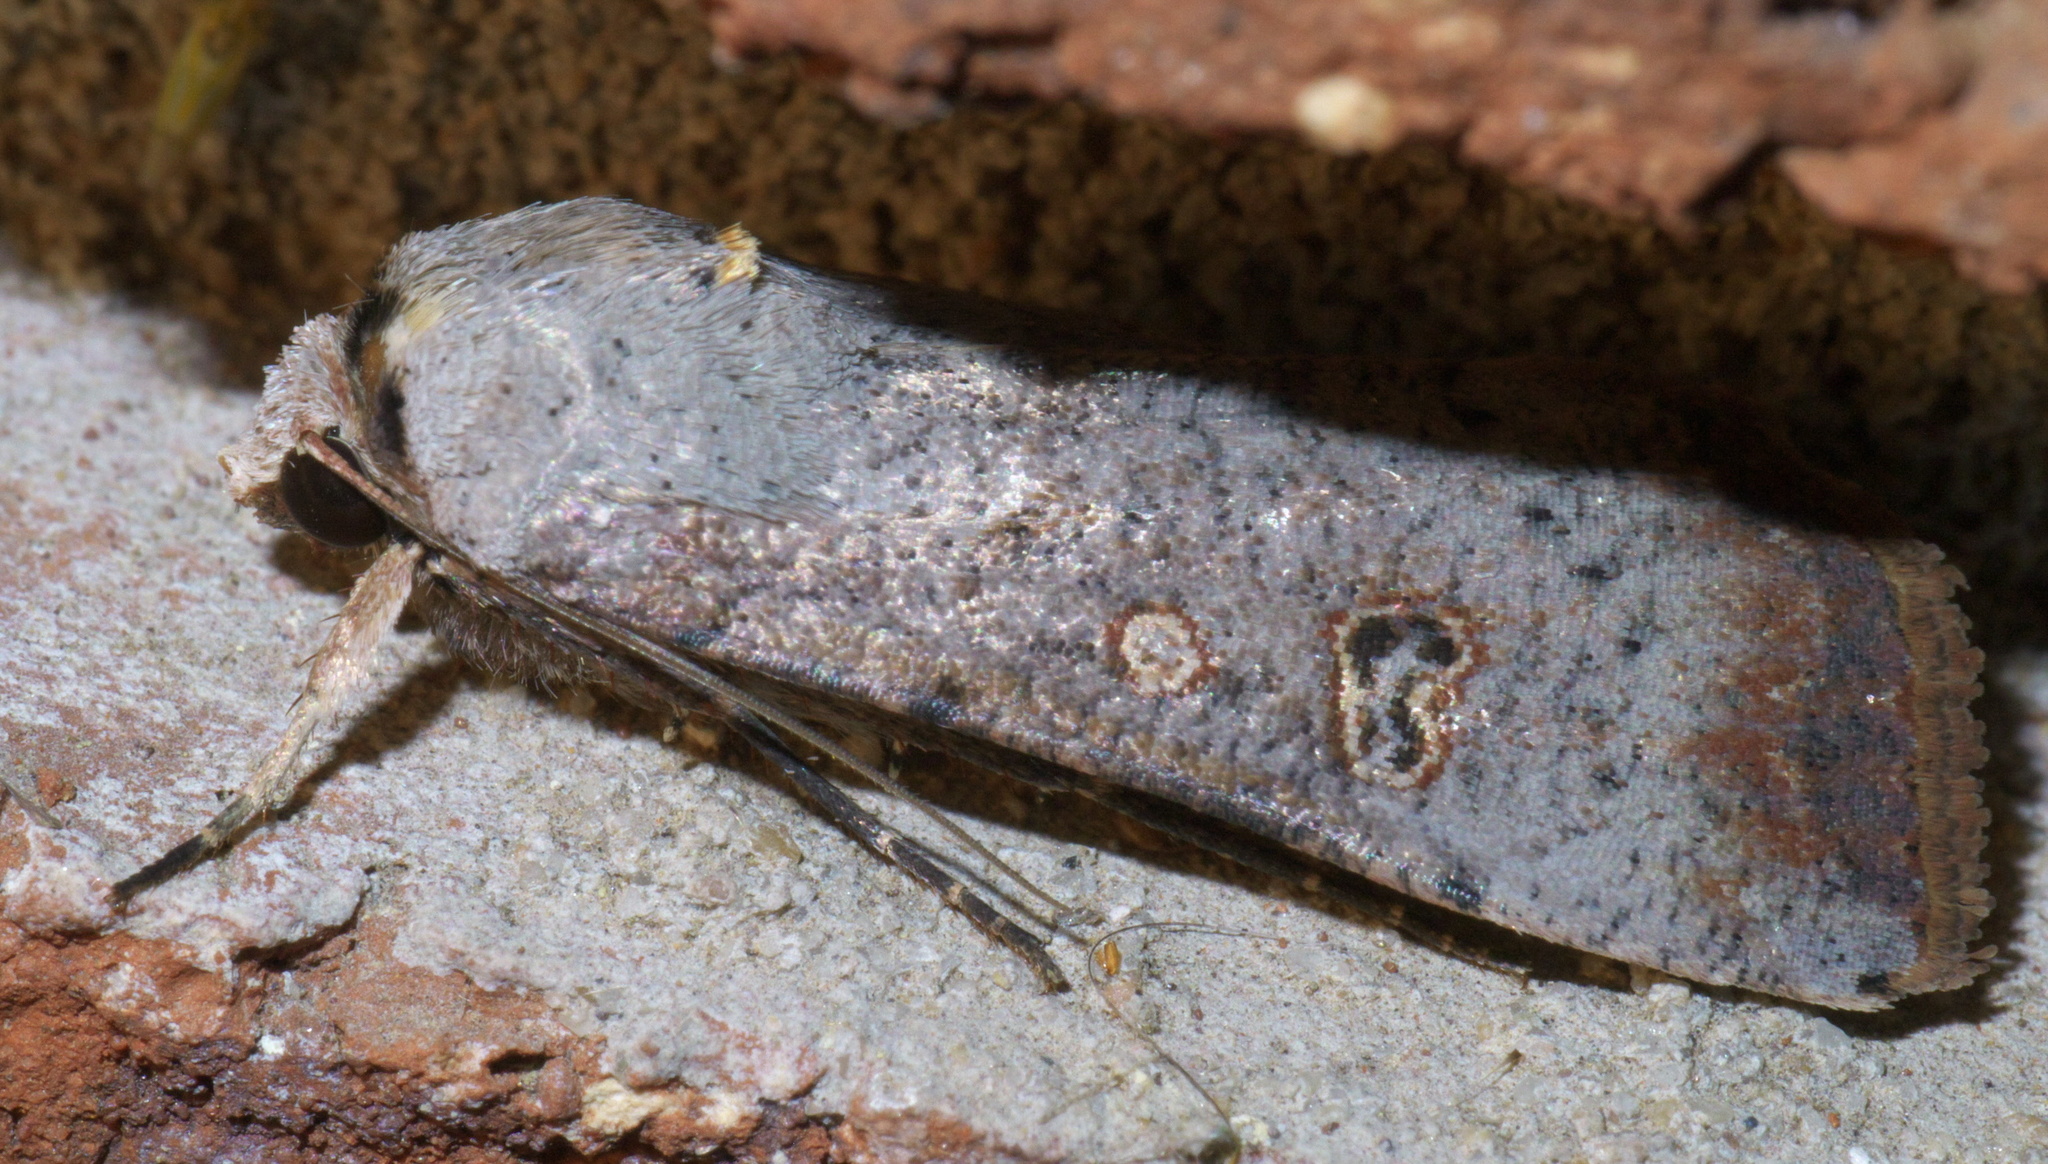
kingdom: Animalia
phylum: Arthropoda
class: Insecta
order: Lepidoptera
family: Noctuidae
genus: Anicla
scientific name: Anicla infecta
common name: Green cutworm
